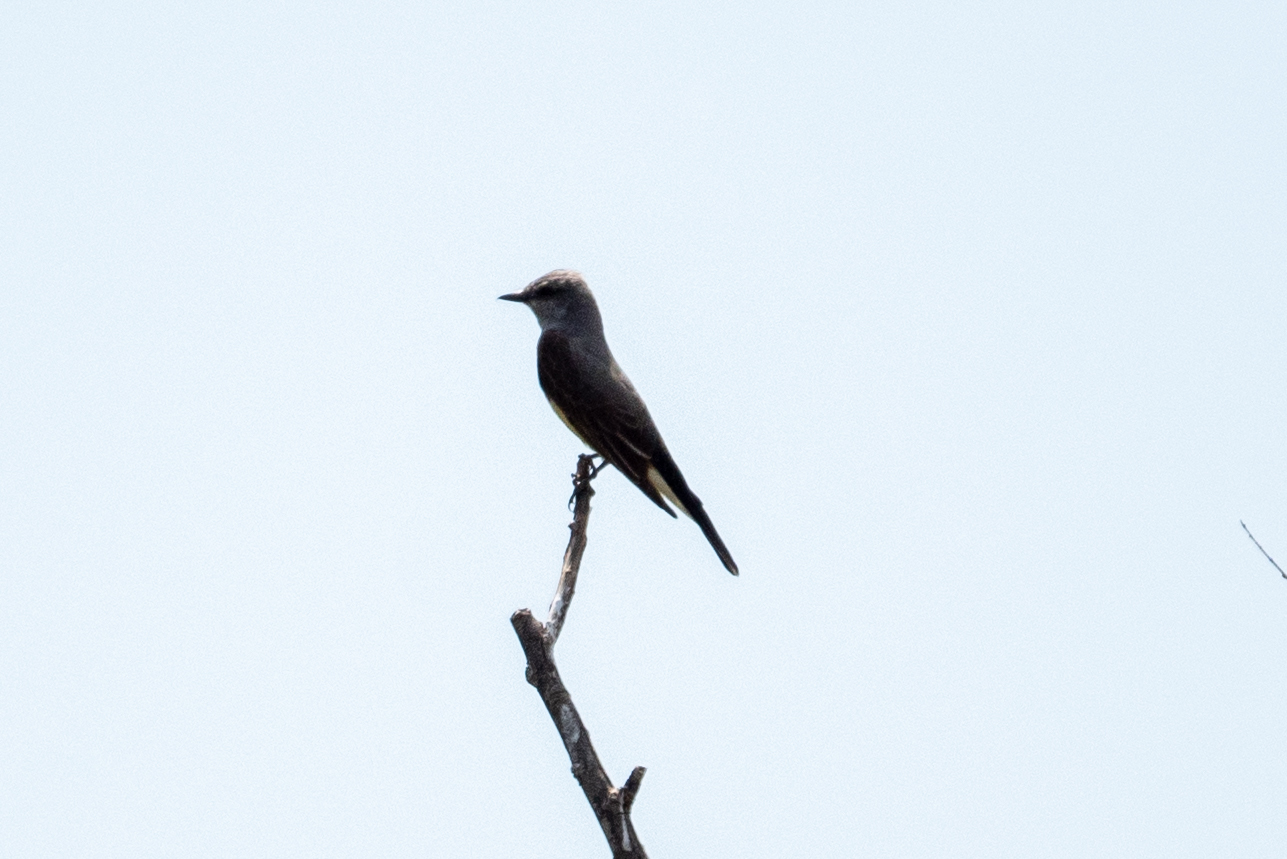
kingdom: Animalia
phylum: Chordata
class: Aves
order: Passeriformes
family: Tyrannidae
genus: Tyrannus
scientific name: Tyrannus verticalis
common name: Western kingbird
